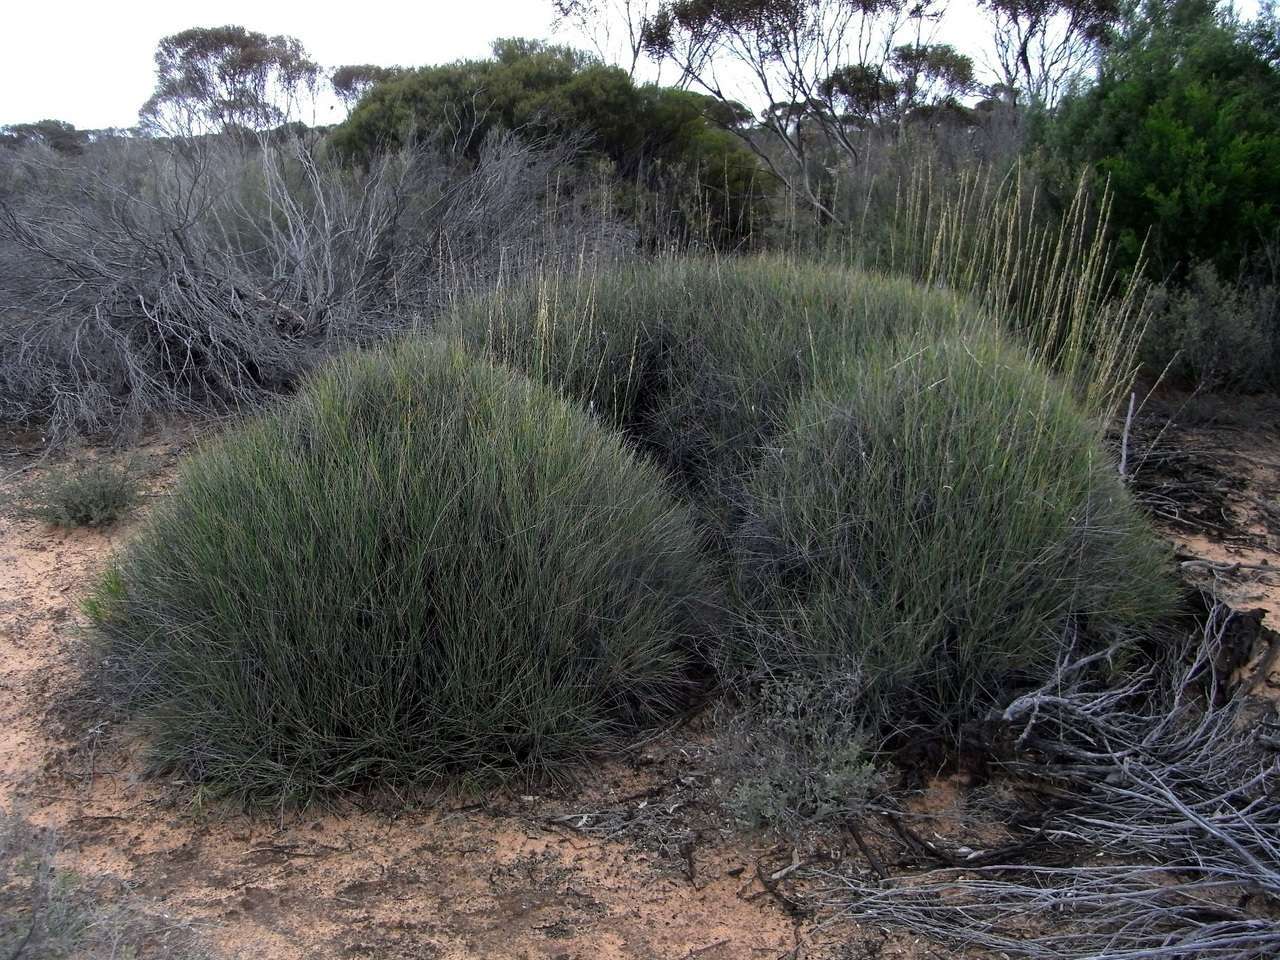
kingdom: Plantae
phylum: Tracheophyta
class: Liliopsida
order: Poales
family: Poaceae
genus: Triodia
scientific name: Triodia scariosa
